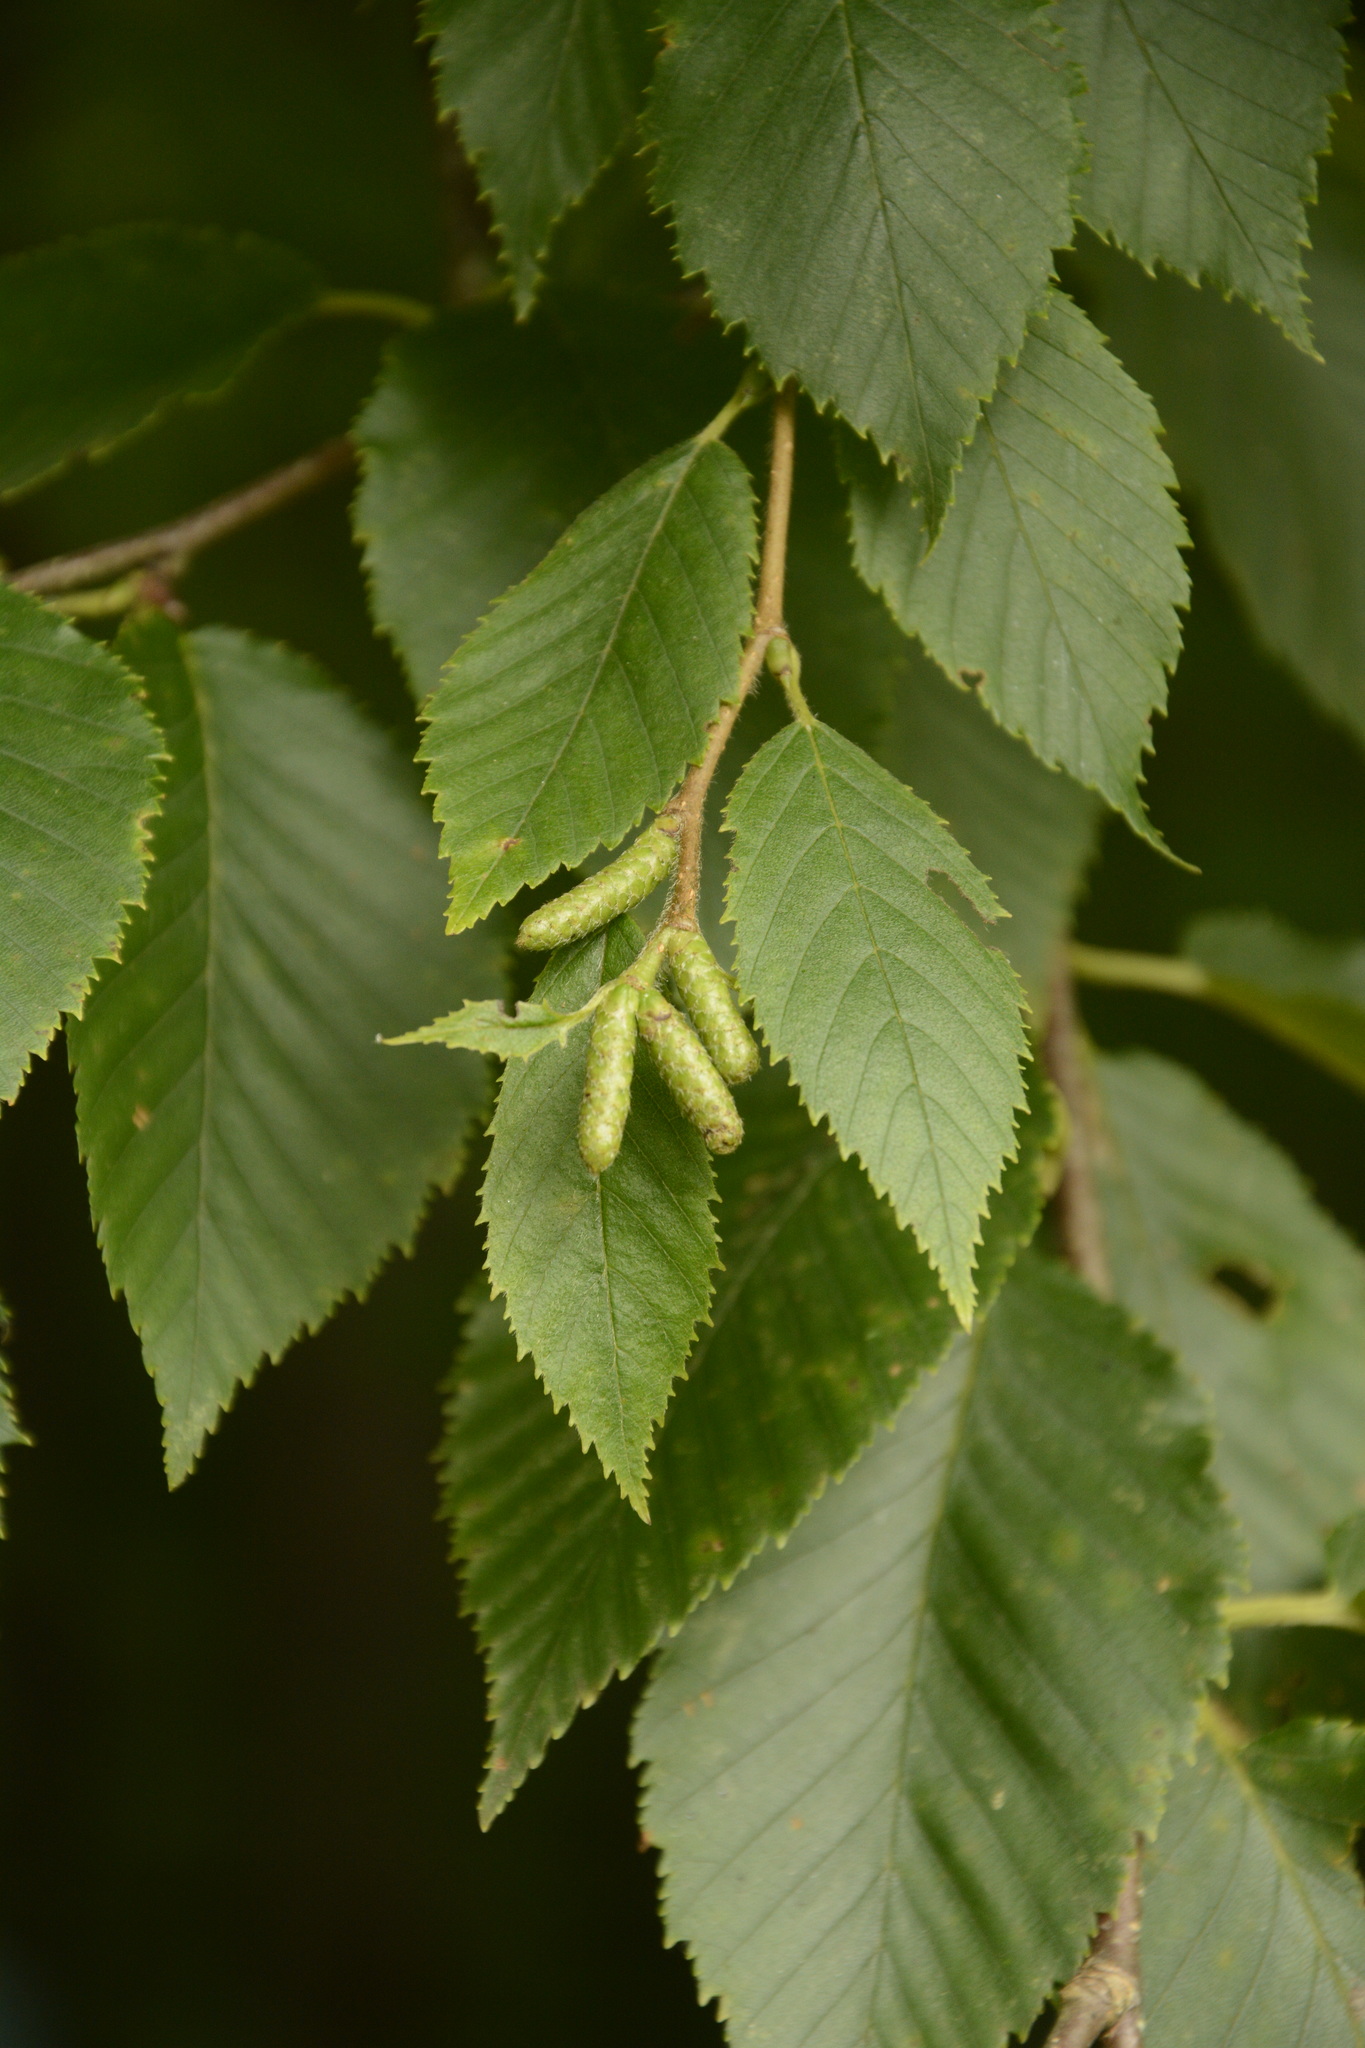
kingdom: Plantae
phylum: Tracheophyta
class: Magnoliopsida
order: Fagales
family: Betulaceae
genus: Betula
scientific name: Betula alleghaniensis
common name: Yellow birch
